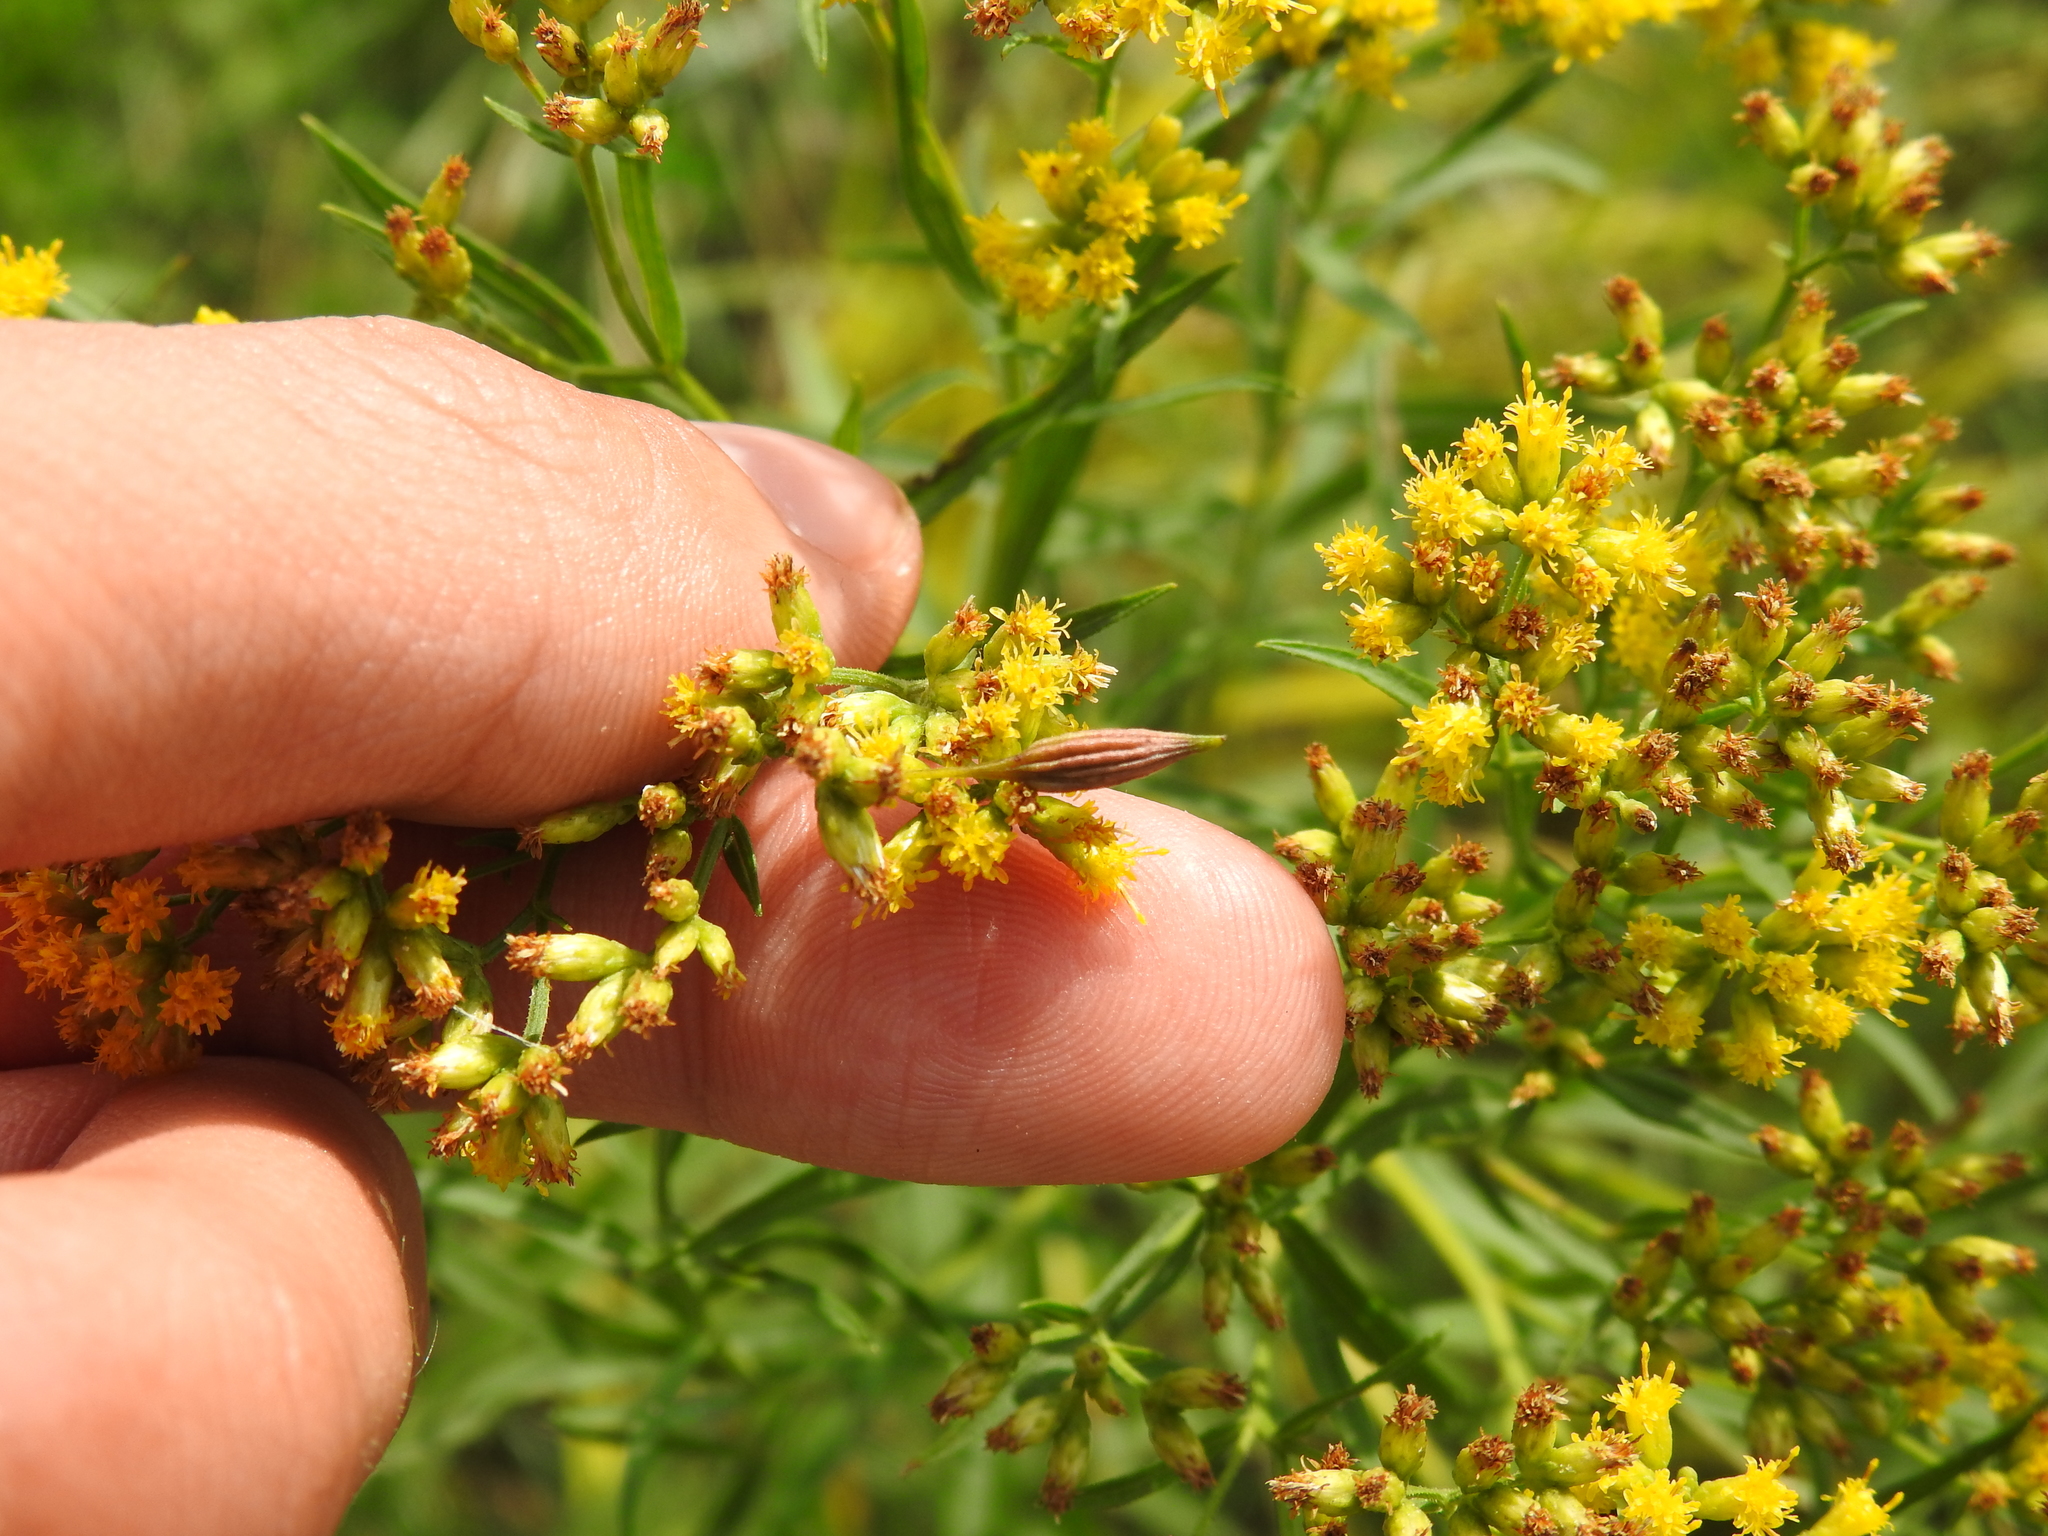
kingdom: Animalia
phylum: Arthropoda
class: Insecta
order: Diptera
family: Cecidomyiidae
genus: Rhopalomyia
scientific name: Rhopalomyia pedicellata
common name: Goldentop pedicellate gall midge
